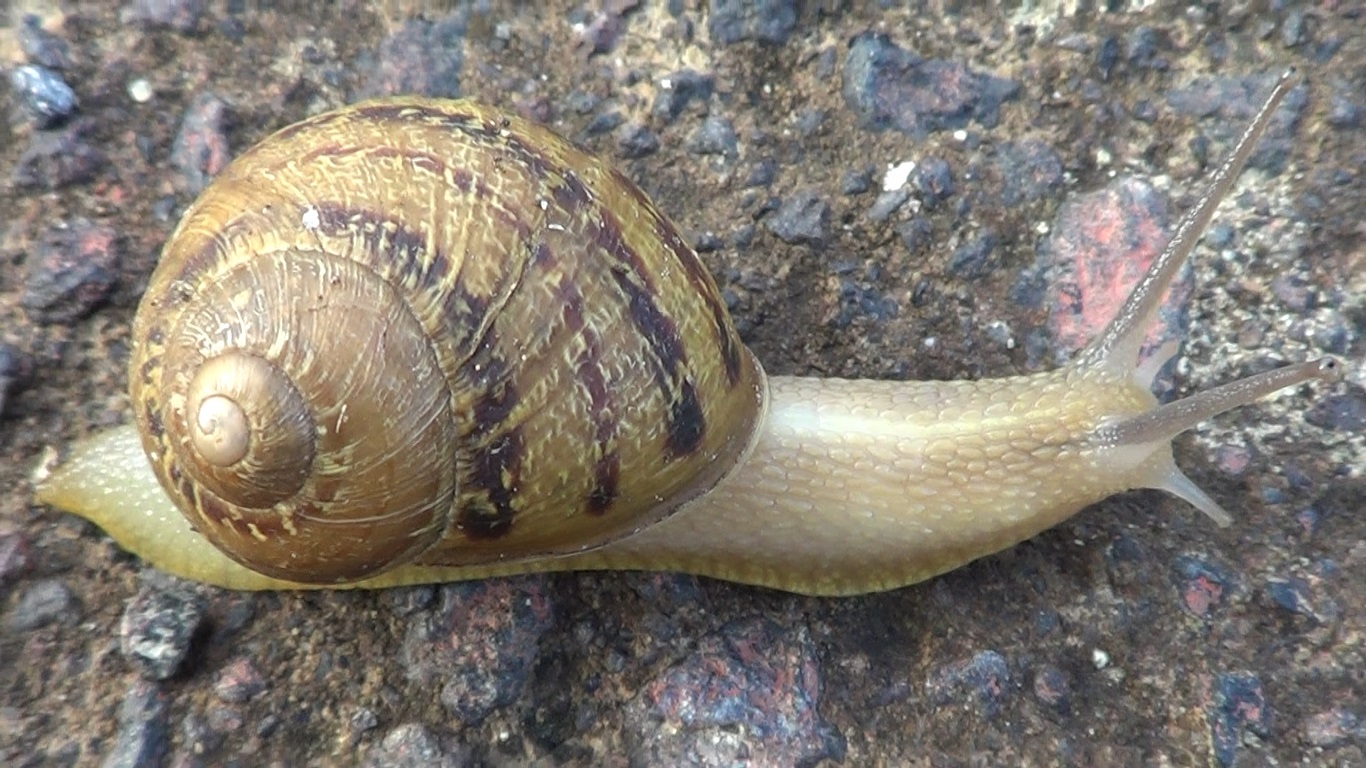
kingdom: Animalia
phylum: Mollusca
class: Gastropoda
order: Stylommatophora
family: Helicidae
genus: Cornu
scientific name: Cornu aspersum
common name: Brown garden snail
